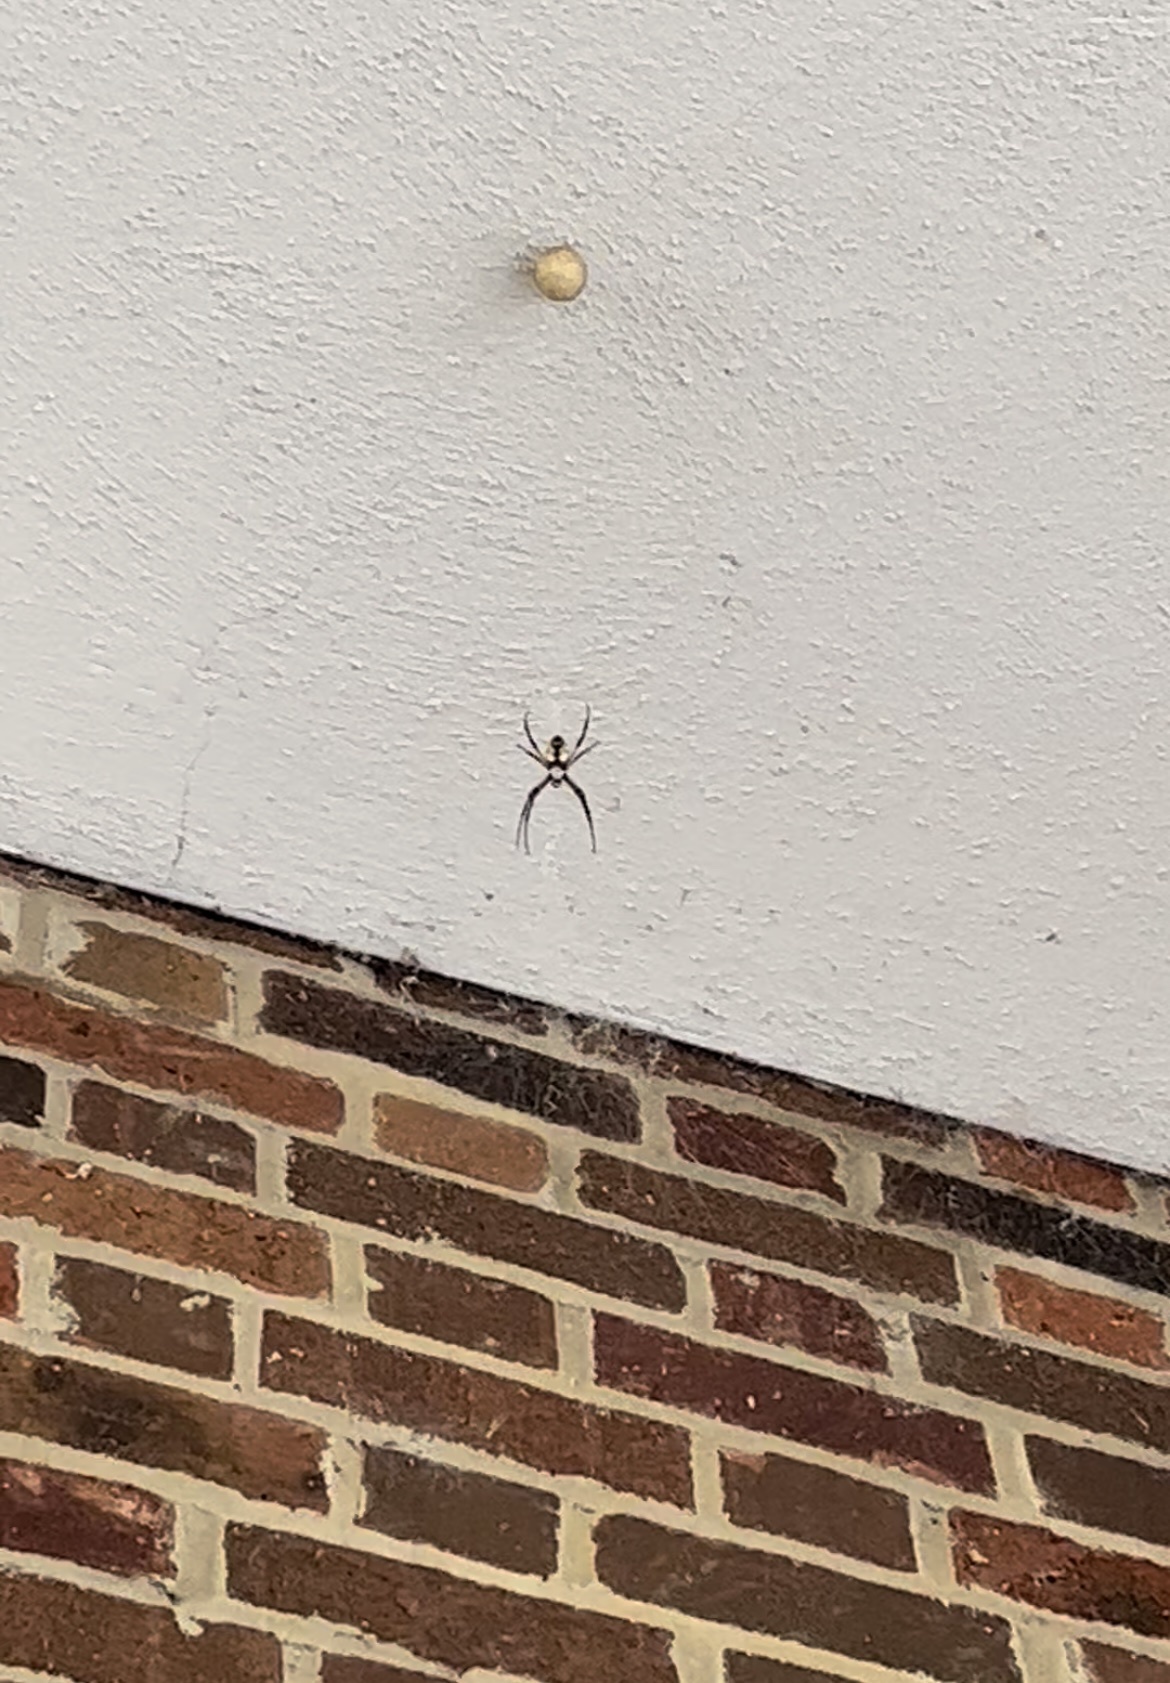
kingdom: Animalia
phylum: Arthropoda
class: Arachnida
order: Araneae
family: Araneidae
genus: Argiope
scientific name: Argiope aurantia
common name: Orb weavers
